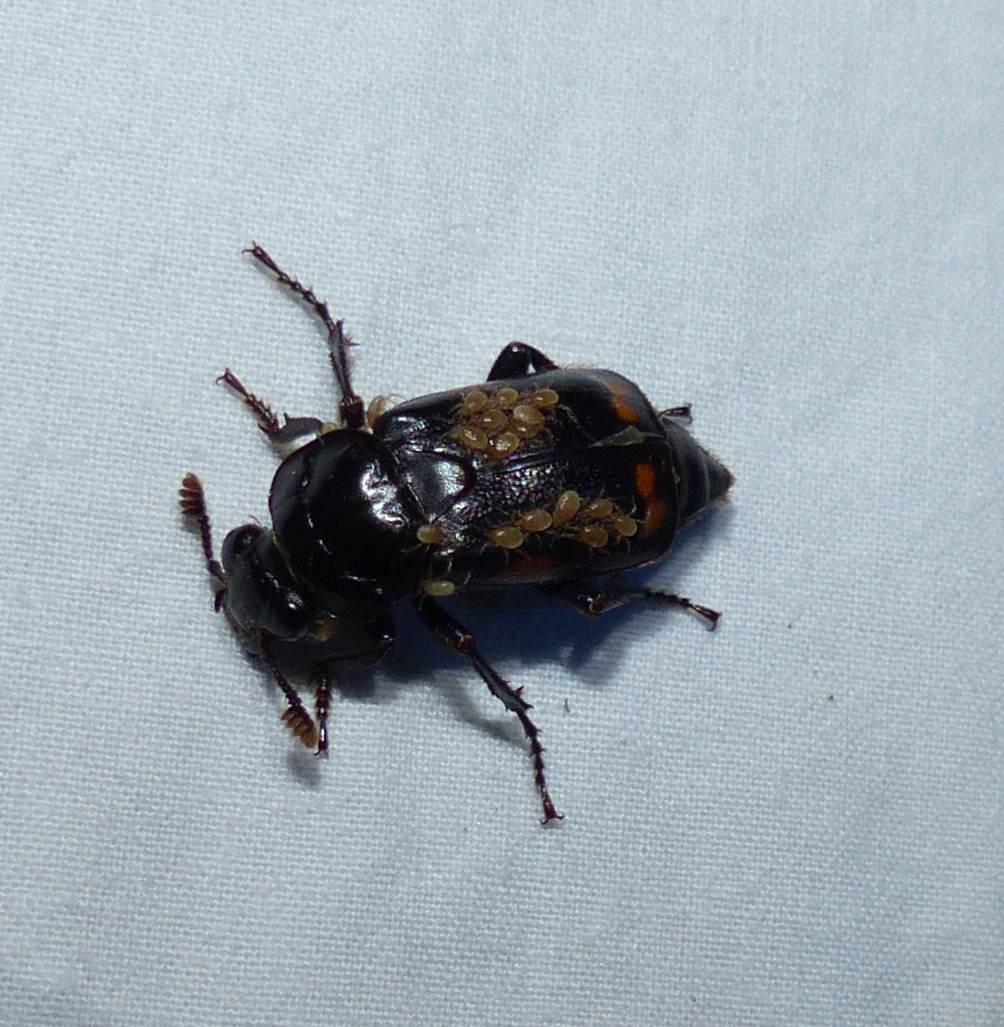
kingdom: Animalia
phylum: Arthropoda
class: Insecta
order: Coleoptera
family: Staphylinidae
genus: Nicrophorus
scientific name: Nicrophorus pustulatus
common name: Pustulated carrion beetle
